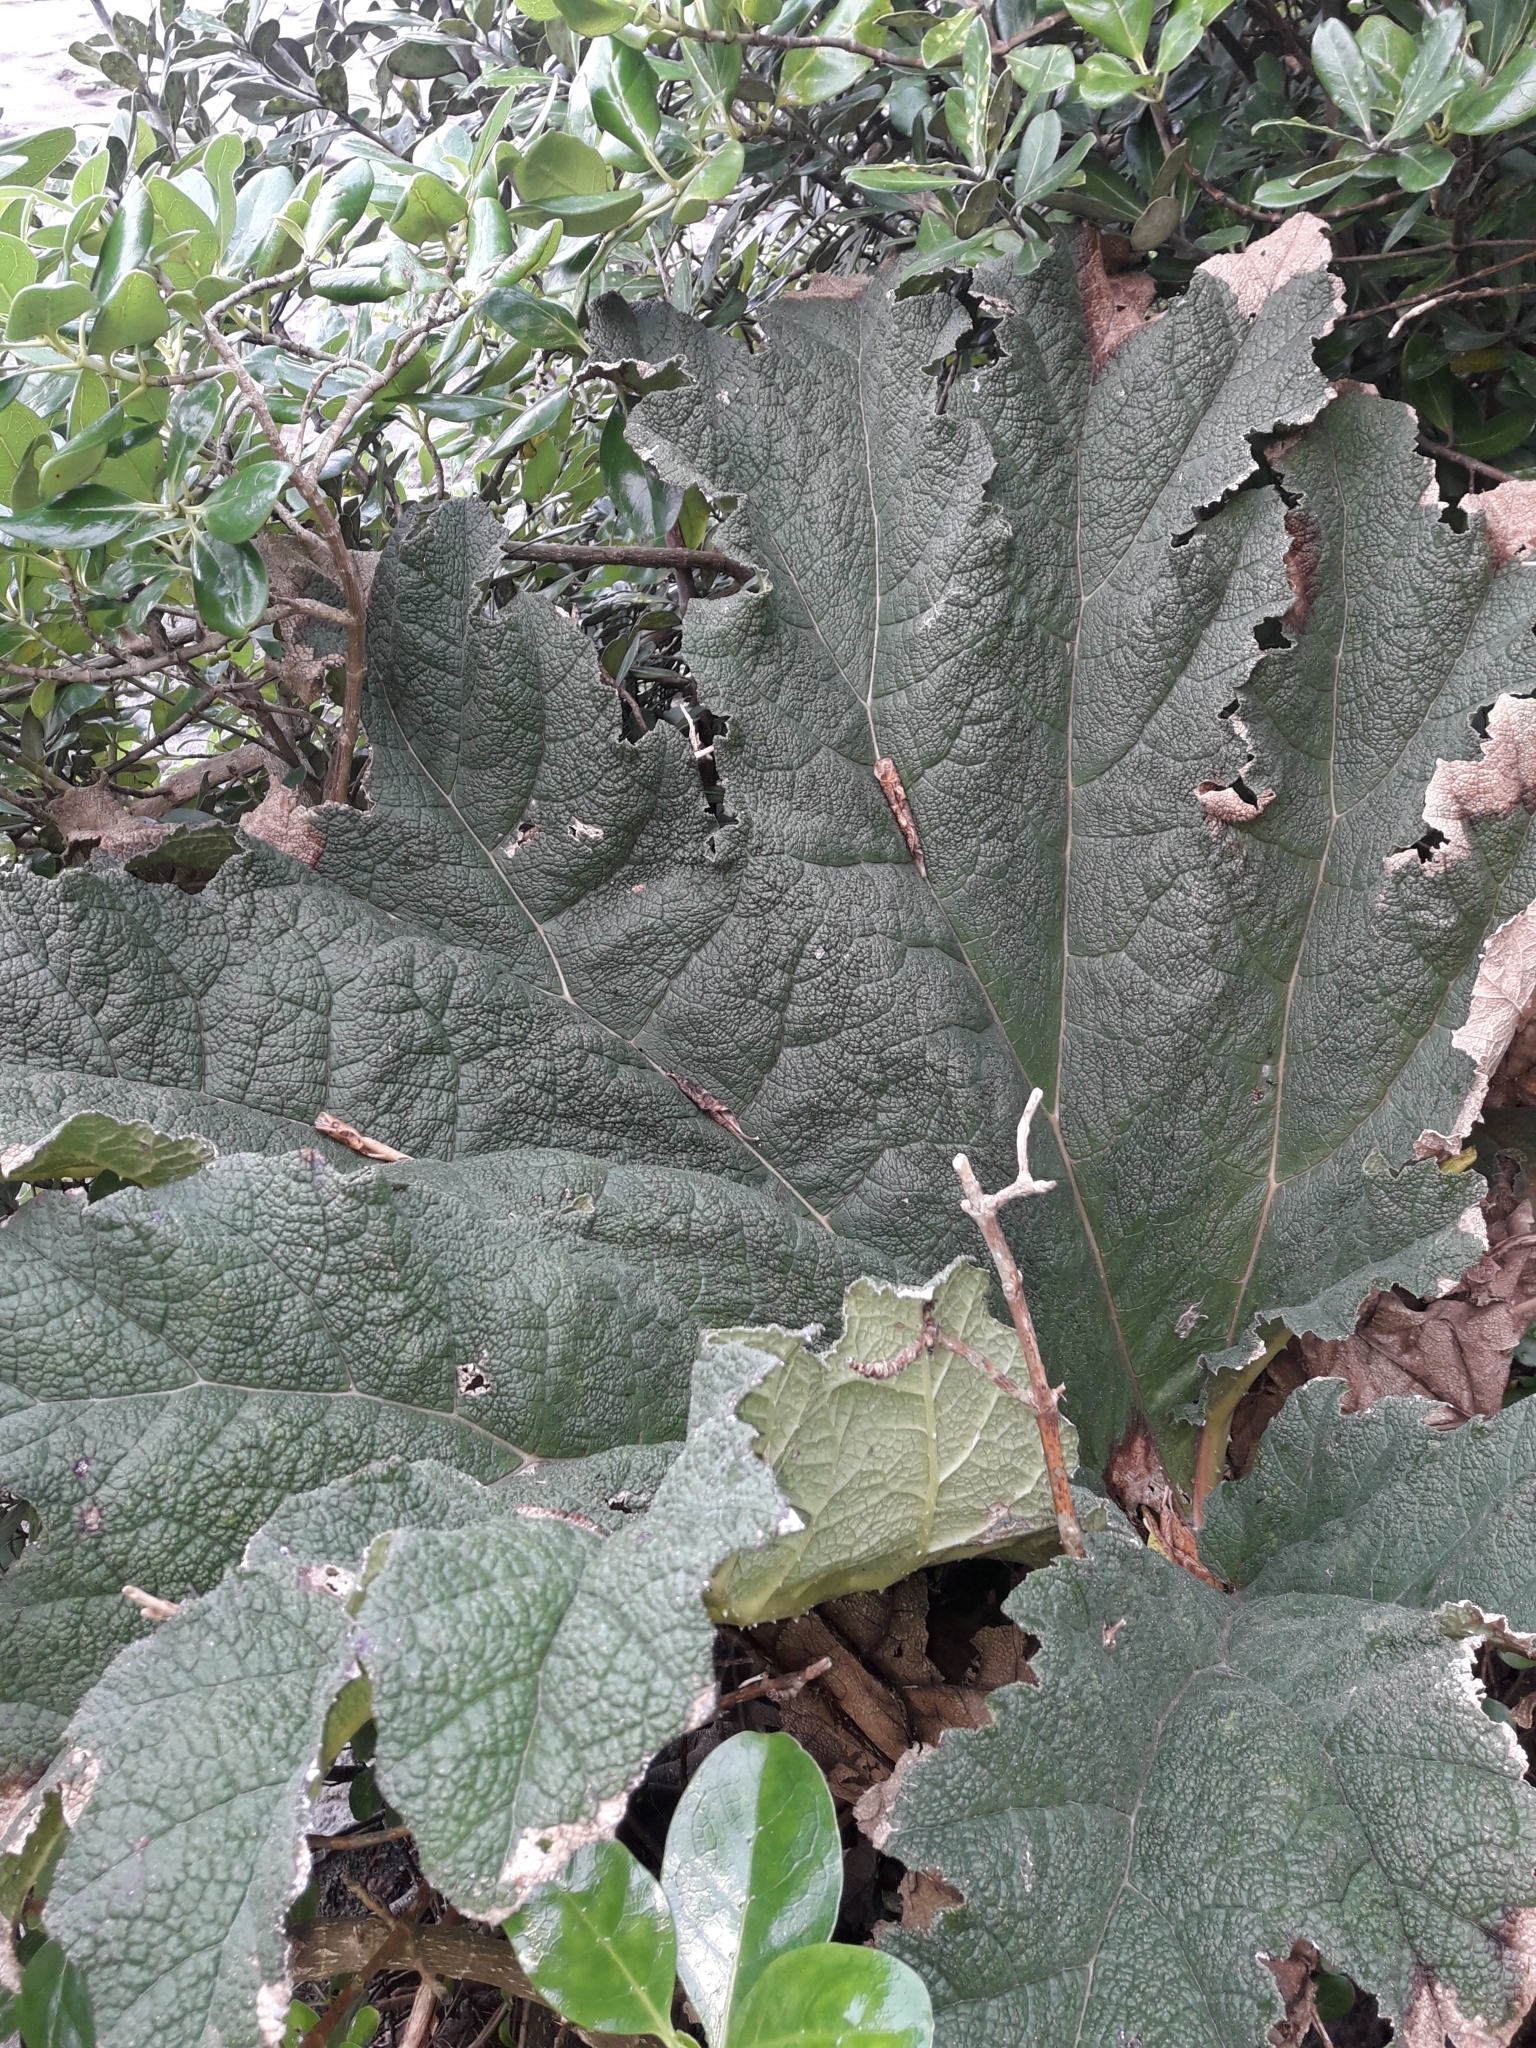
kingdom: Plantae
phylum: Tracheophyta
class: Magnoliopsida
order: Gunnerales
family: Gunneraceae
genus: Gunnera
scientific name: Gunnera tinctoria
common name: Giant-rhubarb
